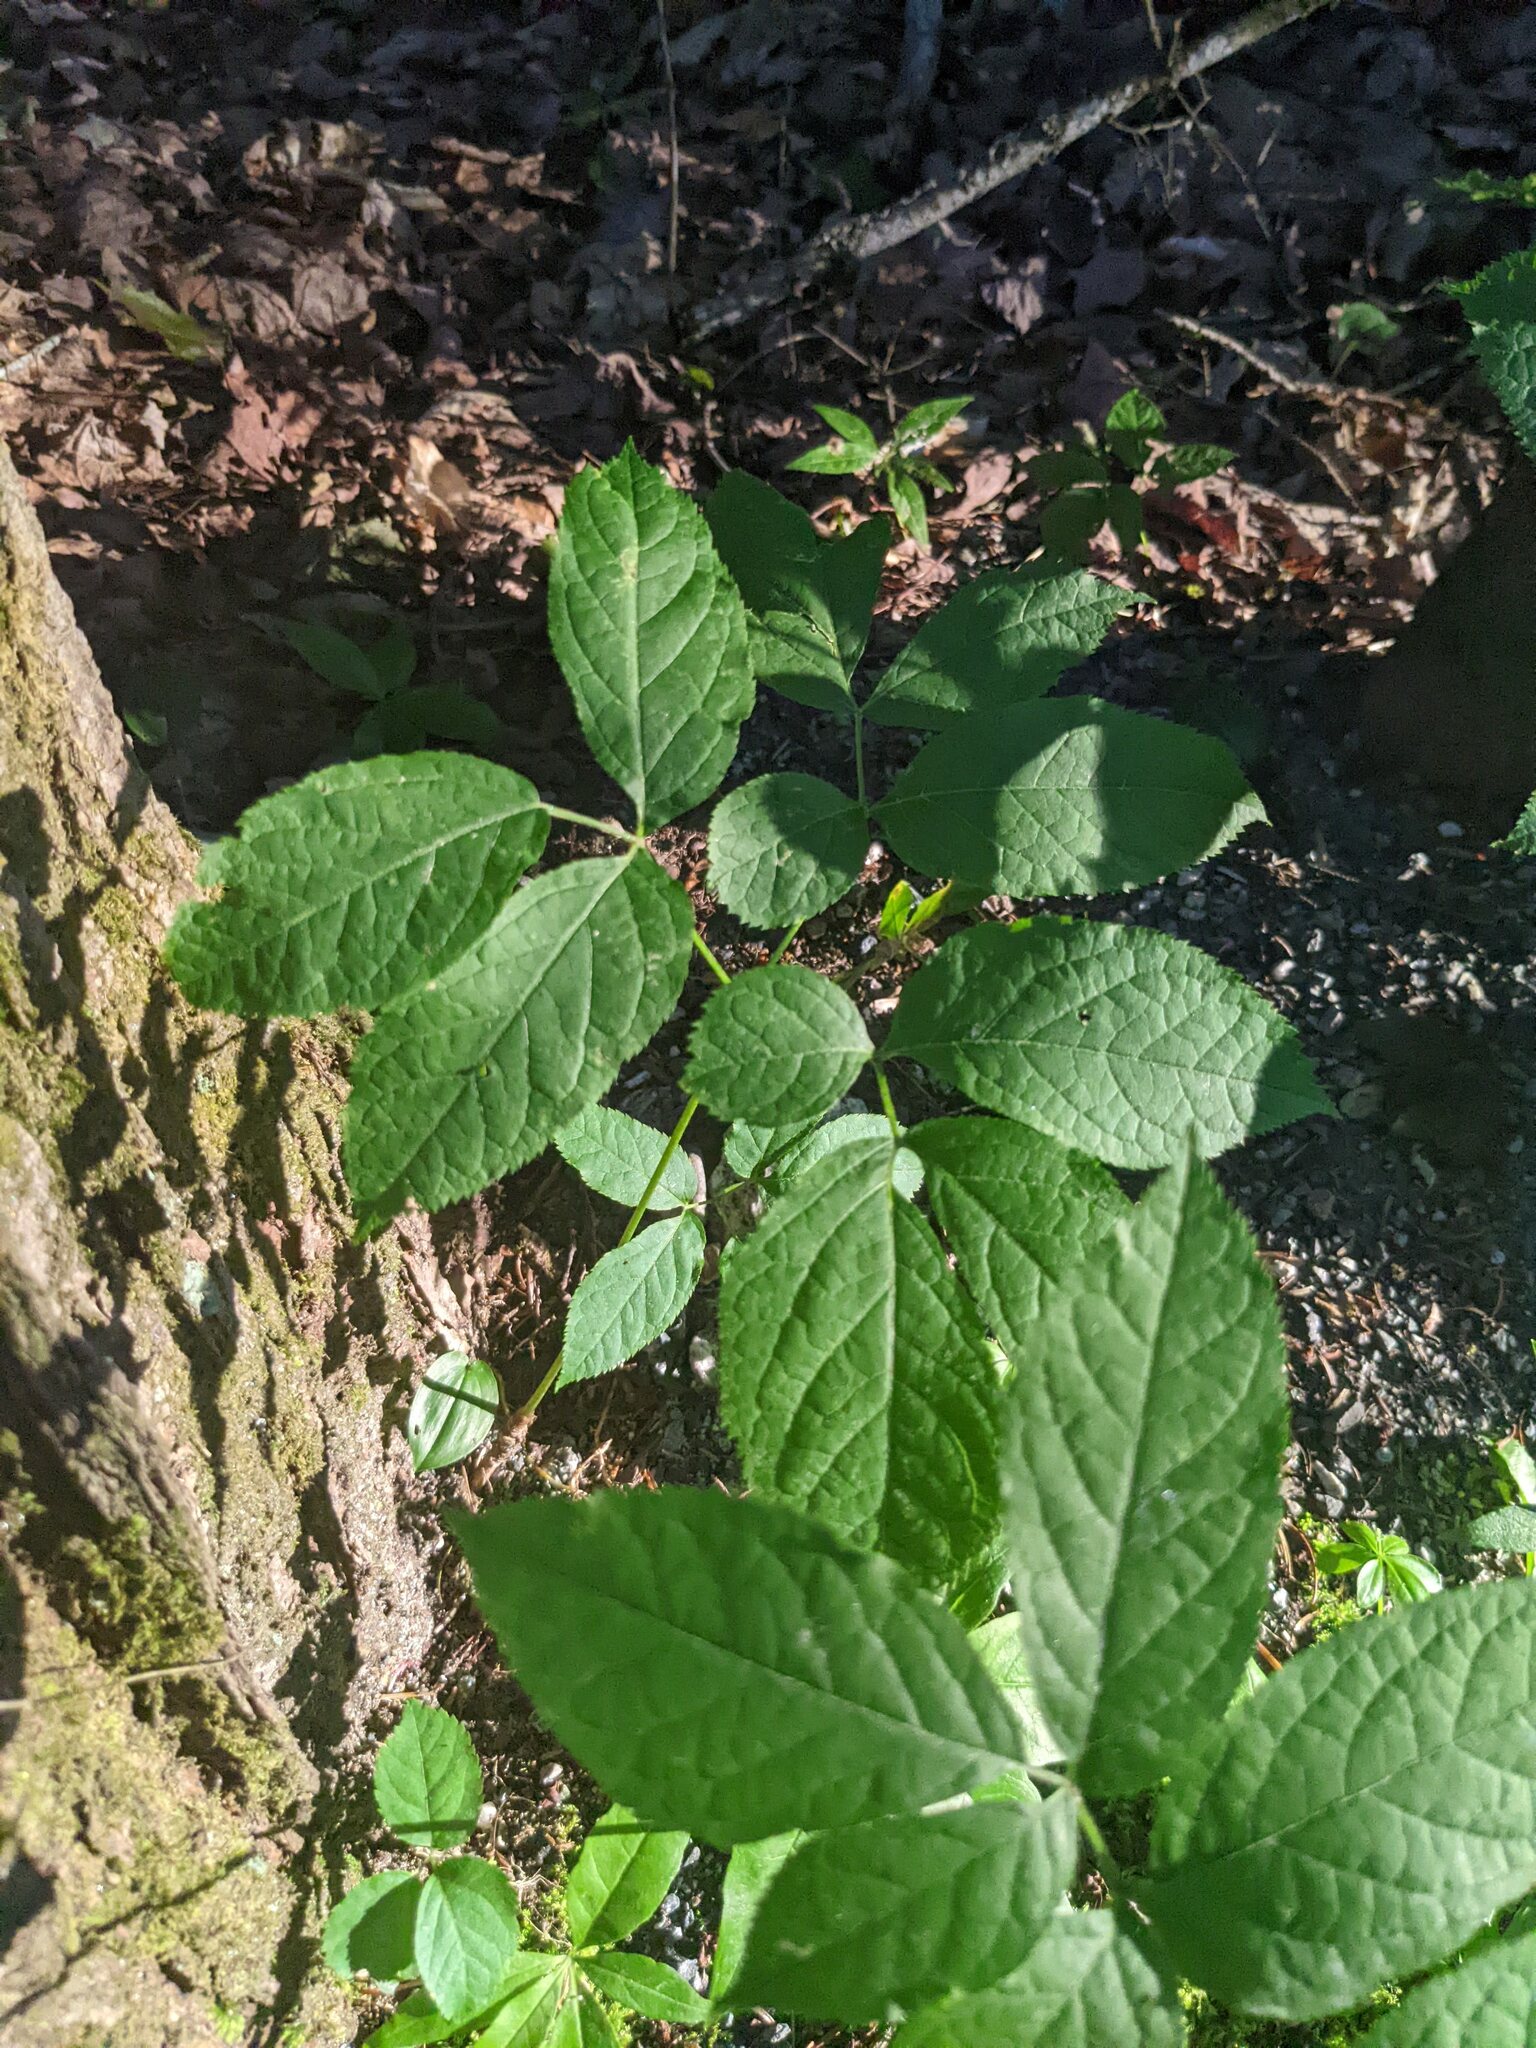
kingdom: Plantae
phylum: Tracheophyta
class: Magnoliopsida
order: Apiales
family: Araliaceae
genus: Aralia
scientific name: Aralia nudicaulis
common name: Wild sarsaparilla
